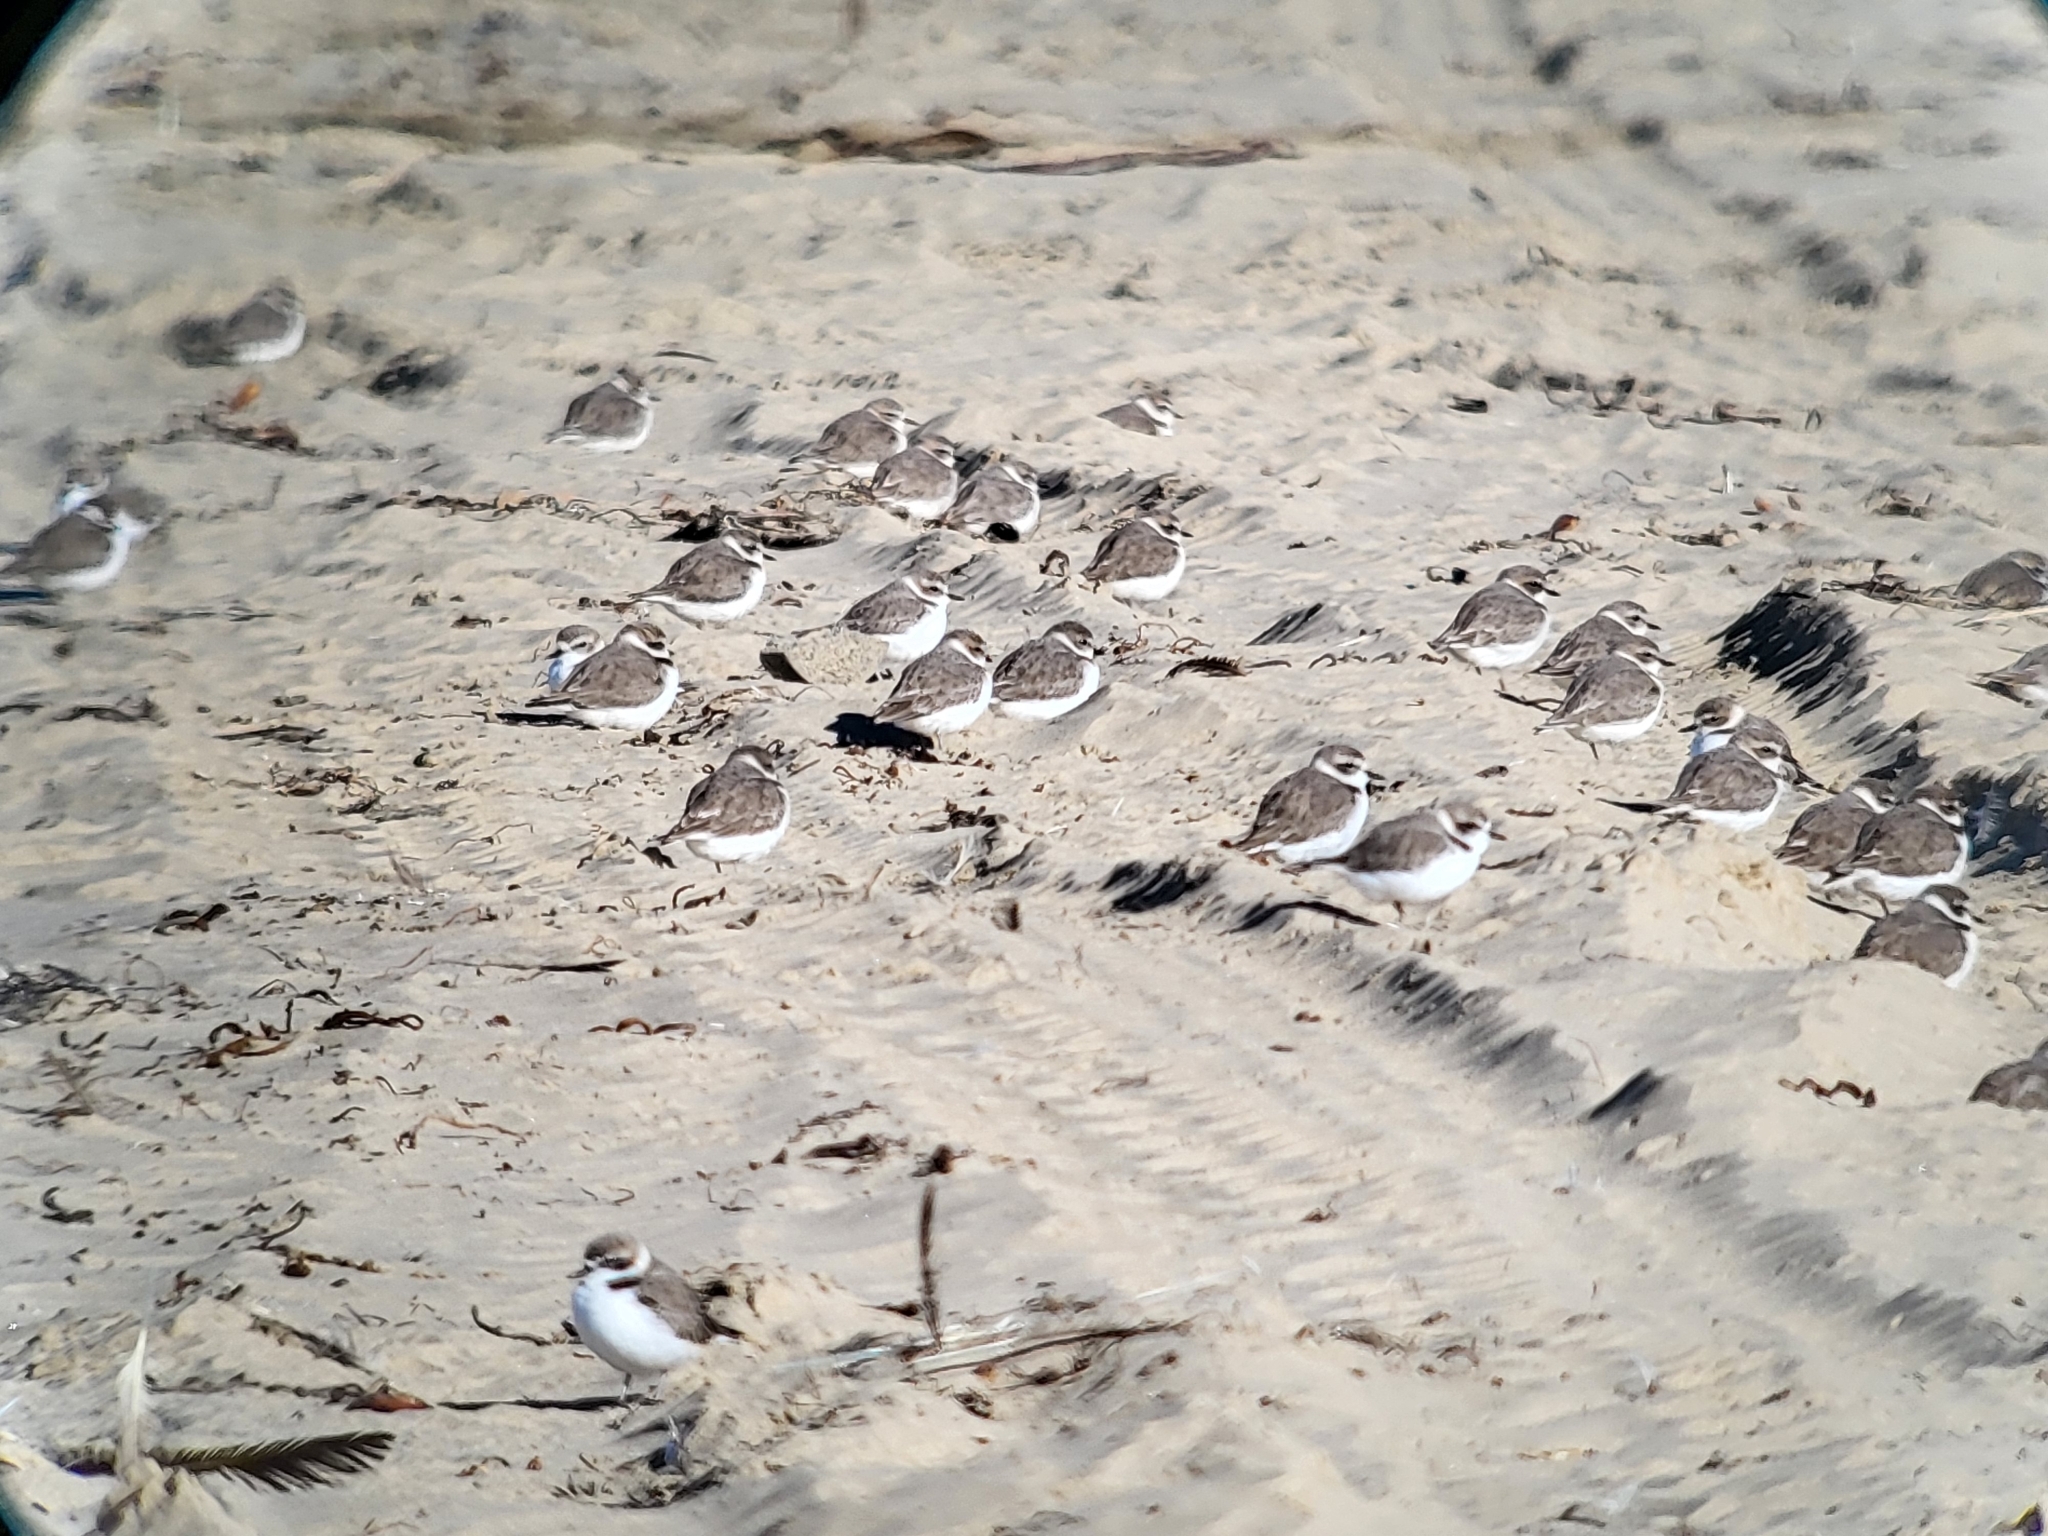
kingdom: Animalia
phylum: Chordata
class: Aves
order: Charadriiformes
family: Charadriidae
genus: Anarhynchus
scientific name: Anarhynchus
